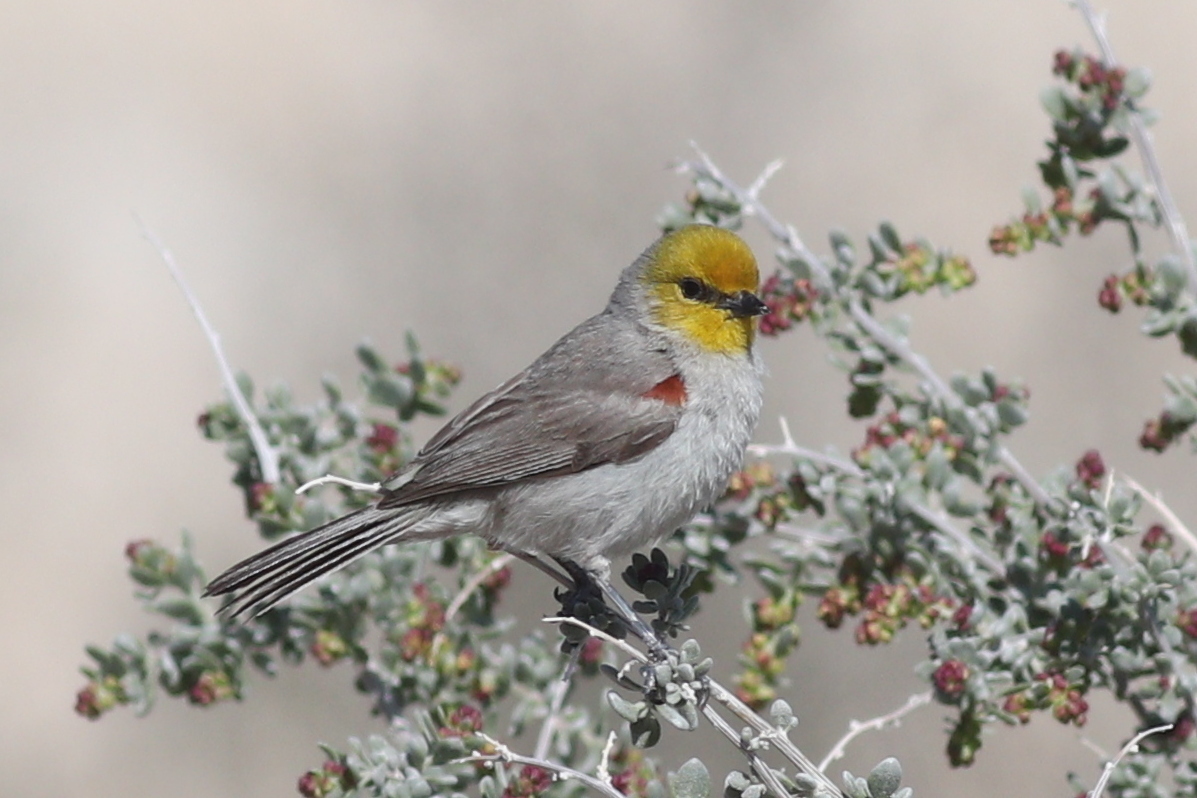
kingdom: Animalia
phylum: Chordata
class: Aves
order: Passeriformes
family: Remizidae
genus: Auriparus
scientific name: Auriparus flaviceps
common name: Verdin
